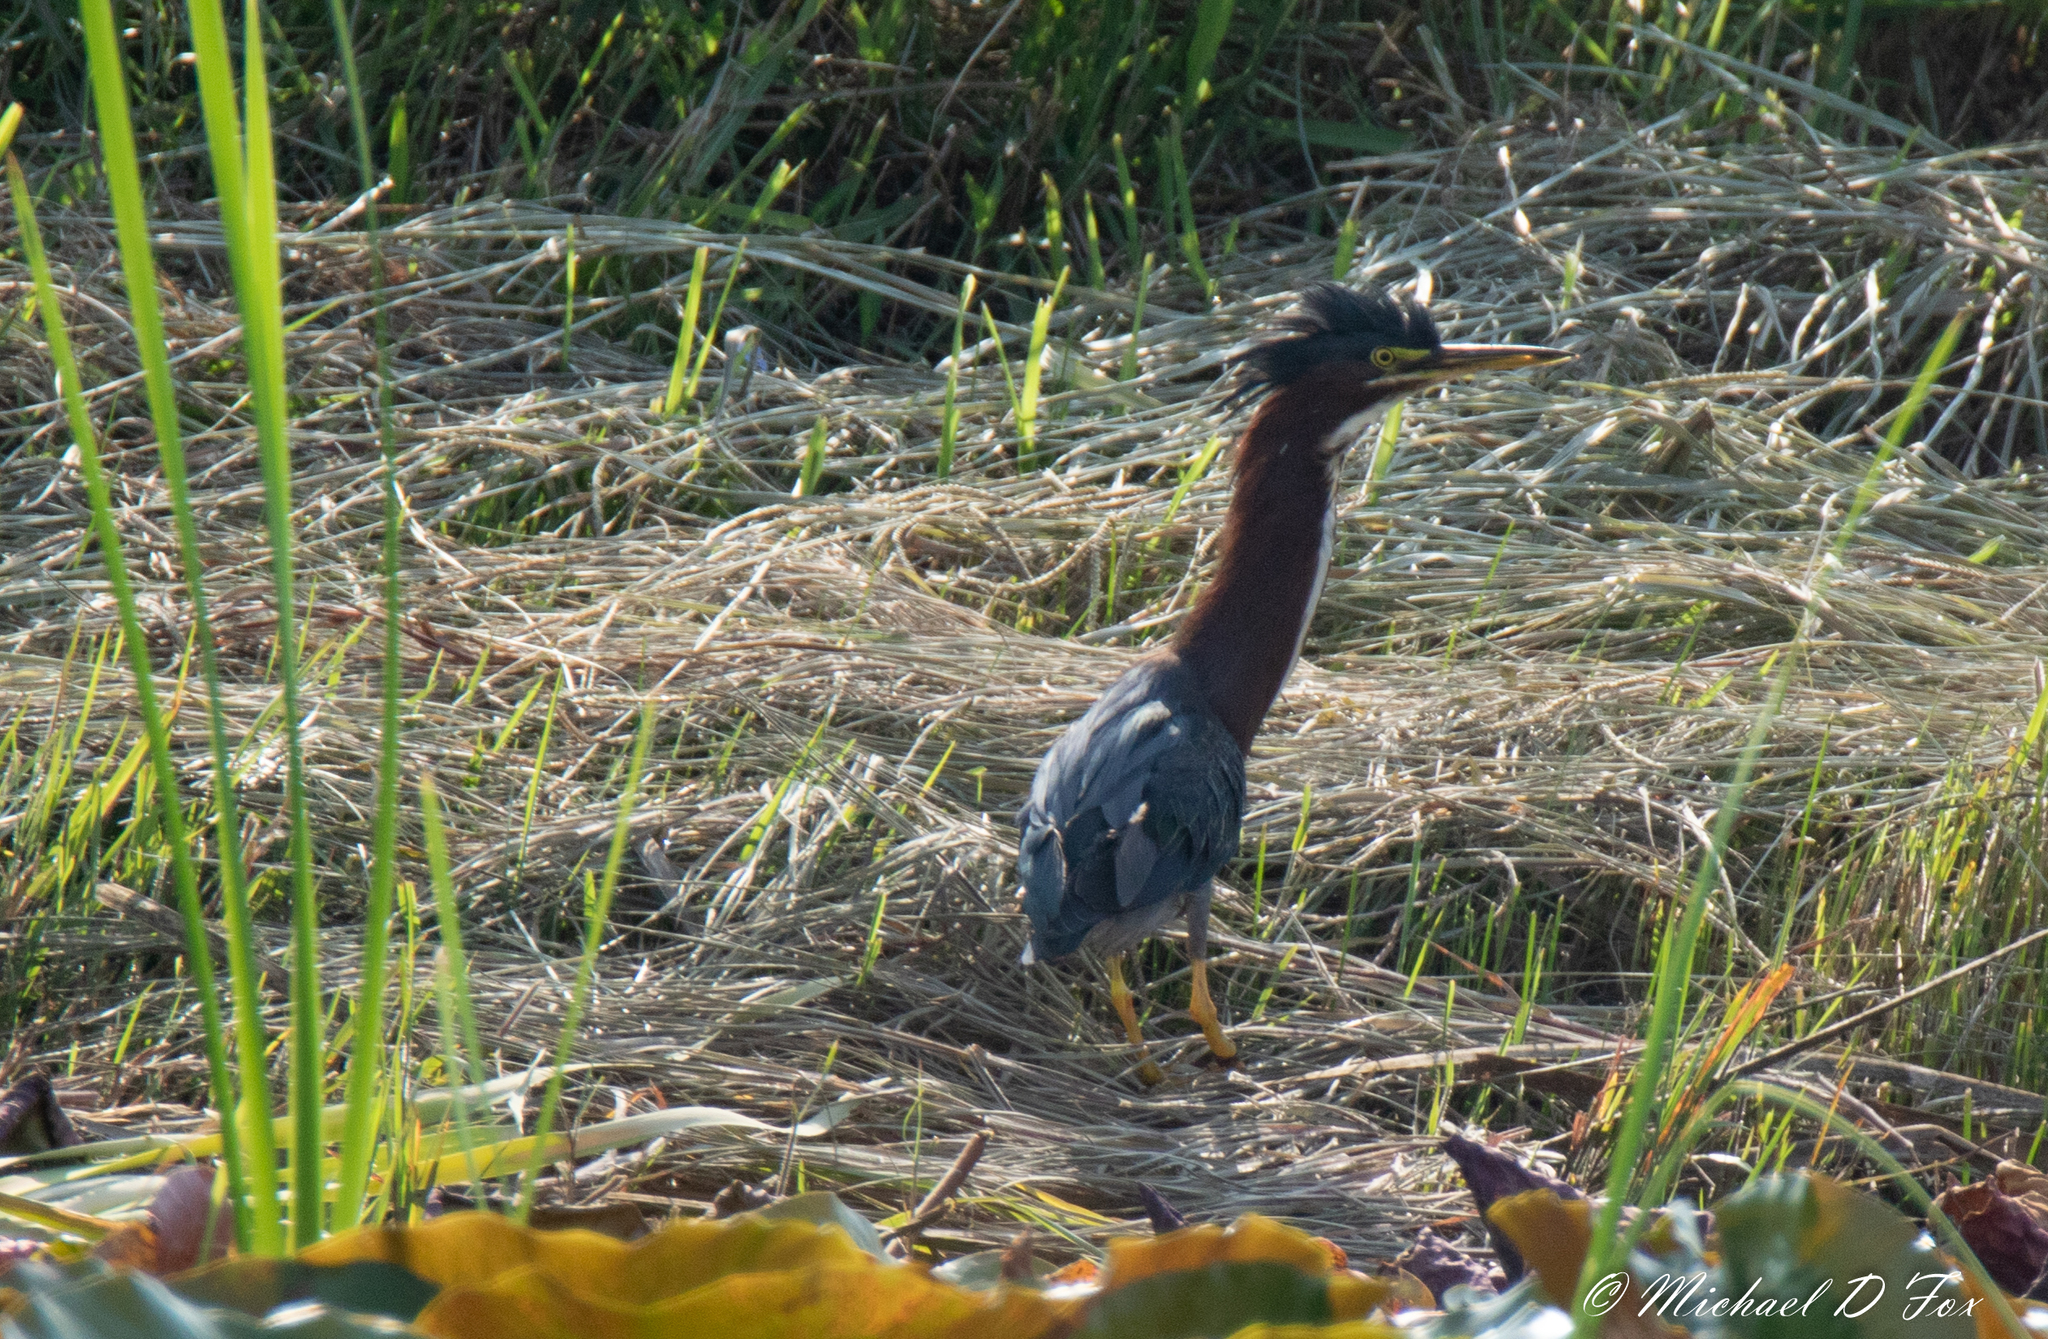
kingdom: Animalia
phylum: Chordata
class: Aves
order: Pelecaniformes
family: Ardeidae
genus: Butorides
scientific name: Butorides virescens
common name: Green heron
